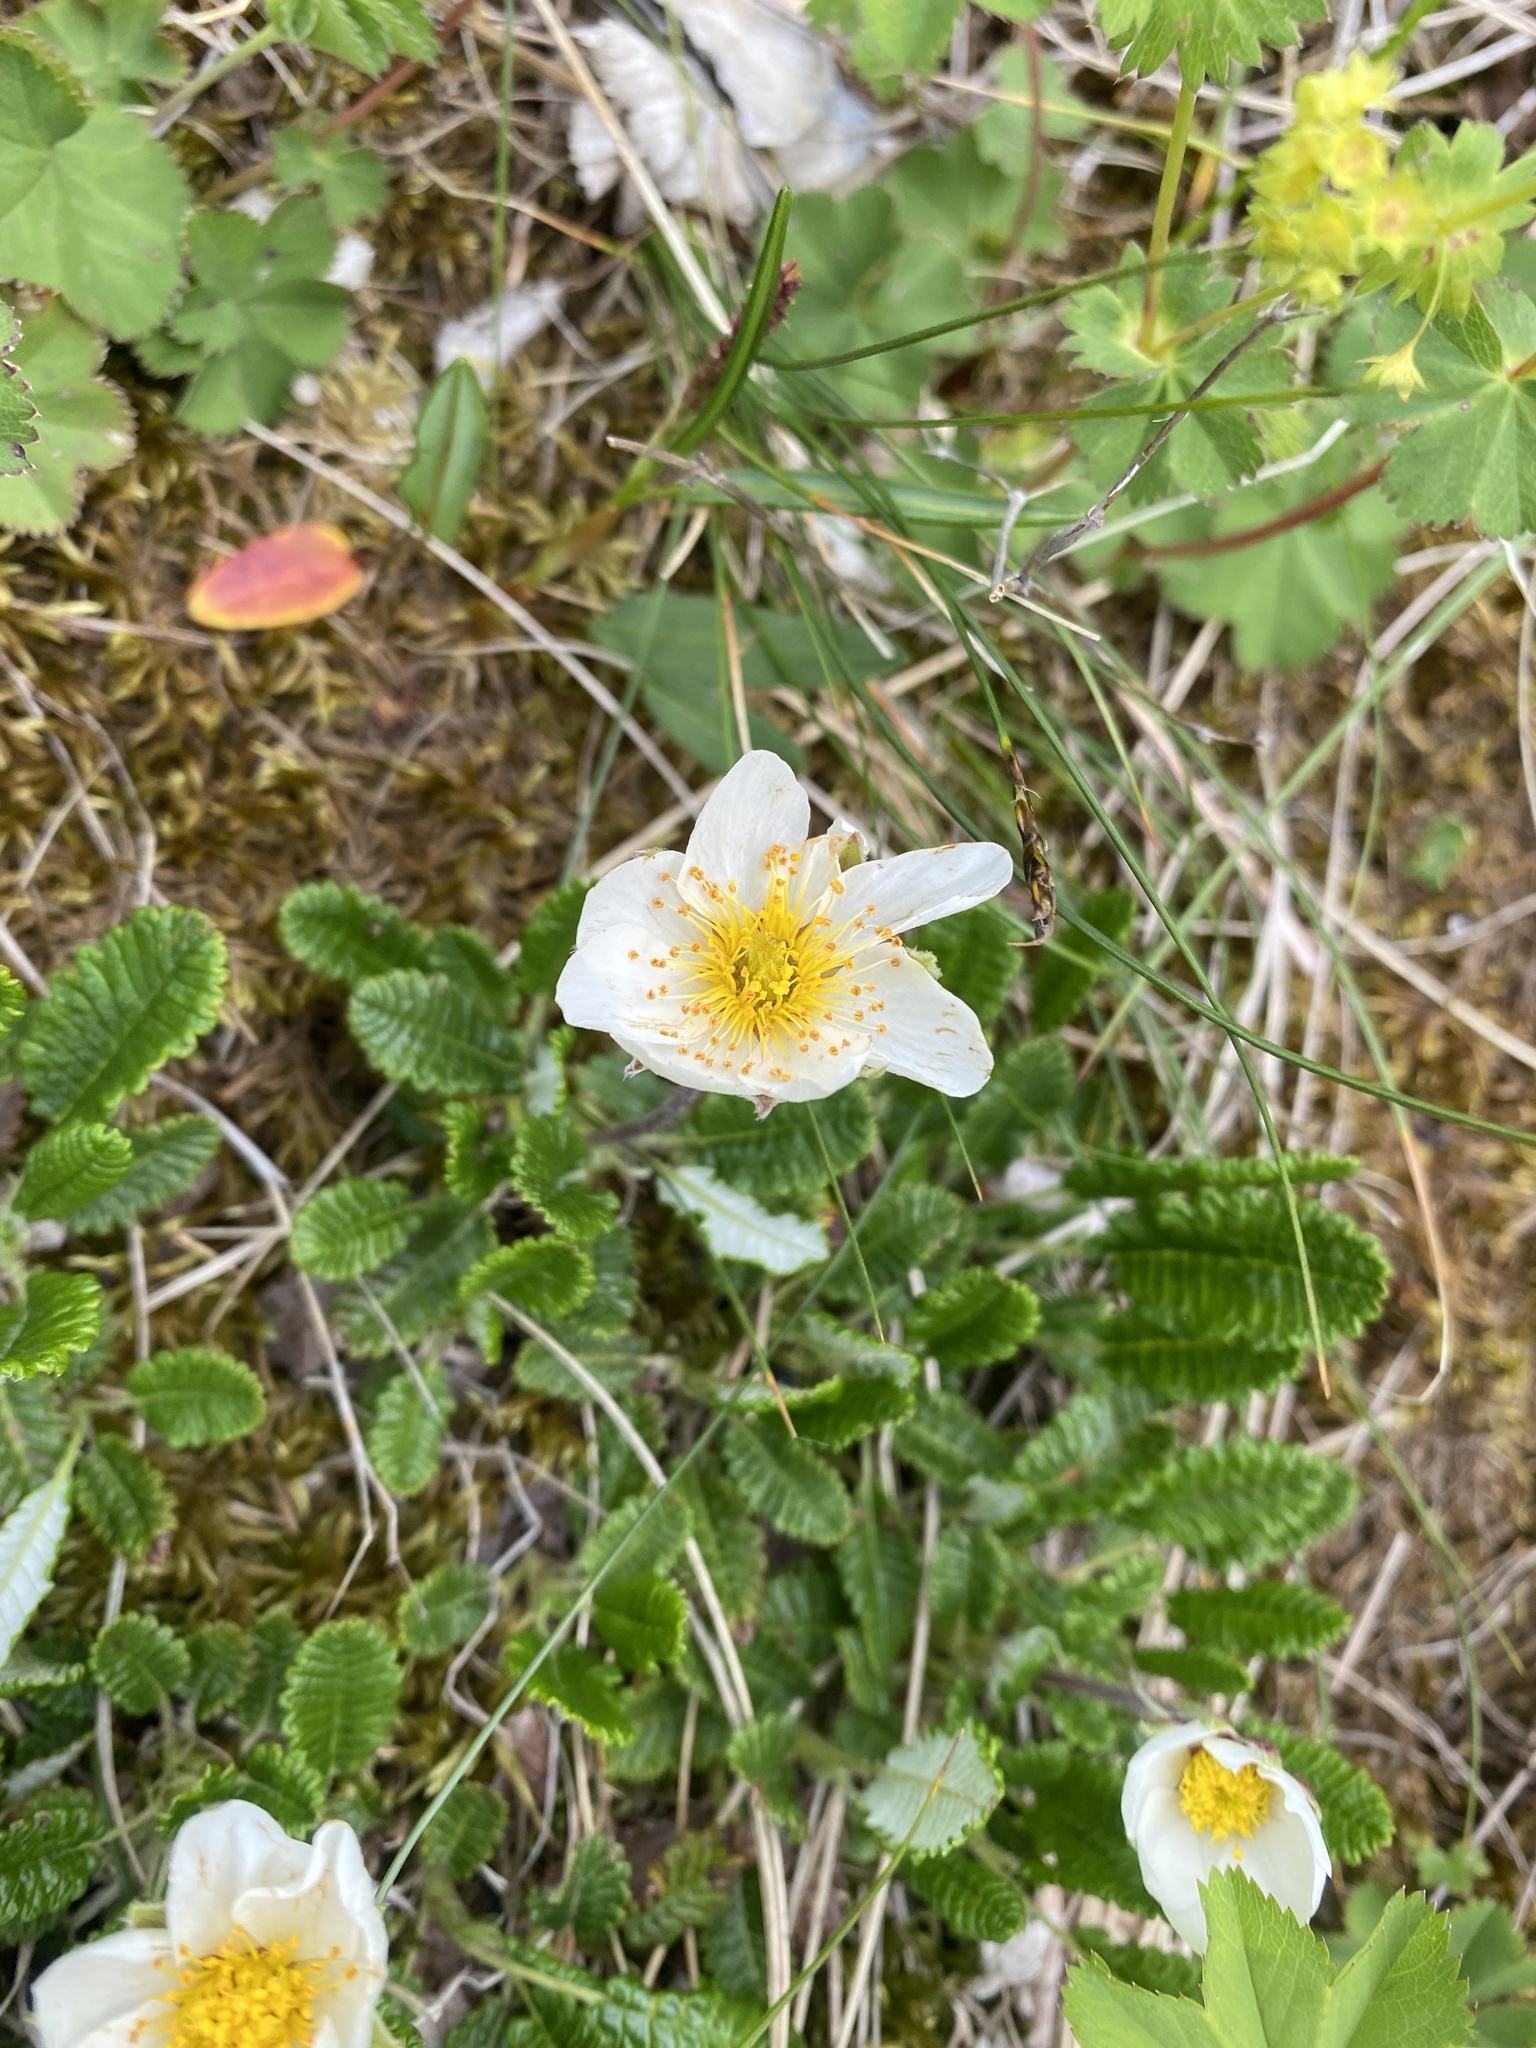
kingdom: Plantae
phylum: Tracheophyta
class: Magnoliopsida
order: Rosales
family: Rosaceae
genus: Dryas
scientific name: Dryas octopetala
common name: Eight-petal mountain-avens
